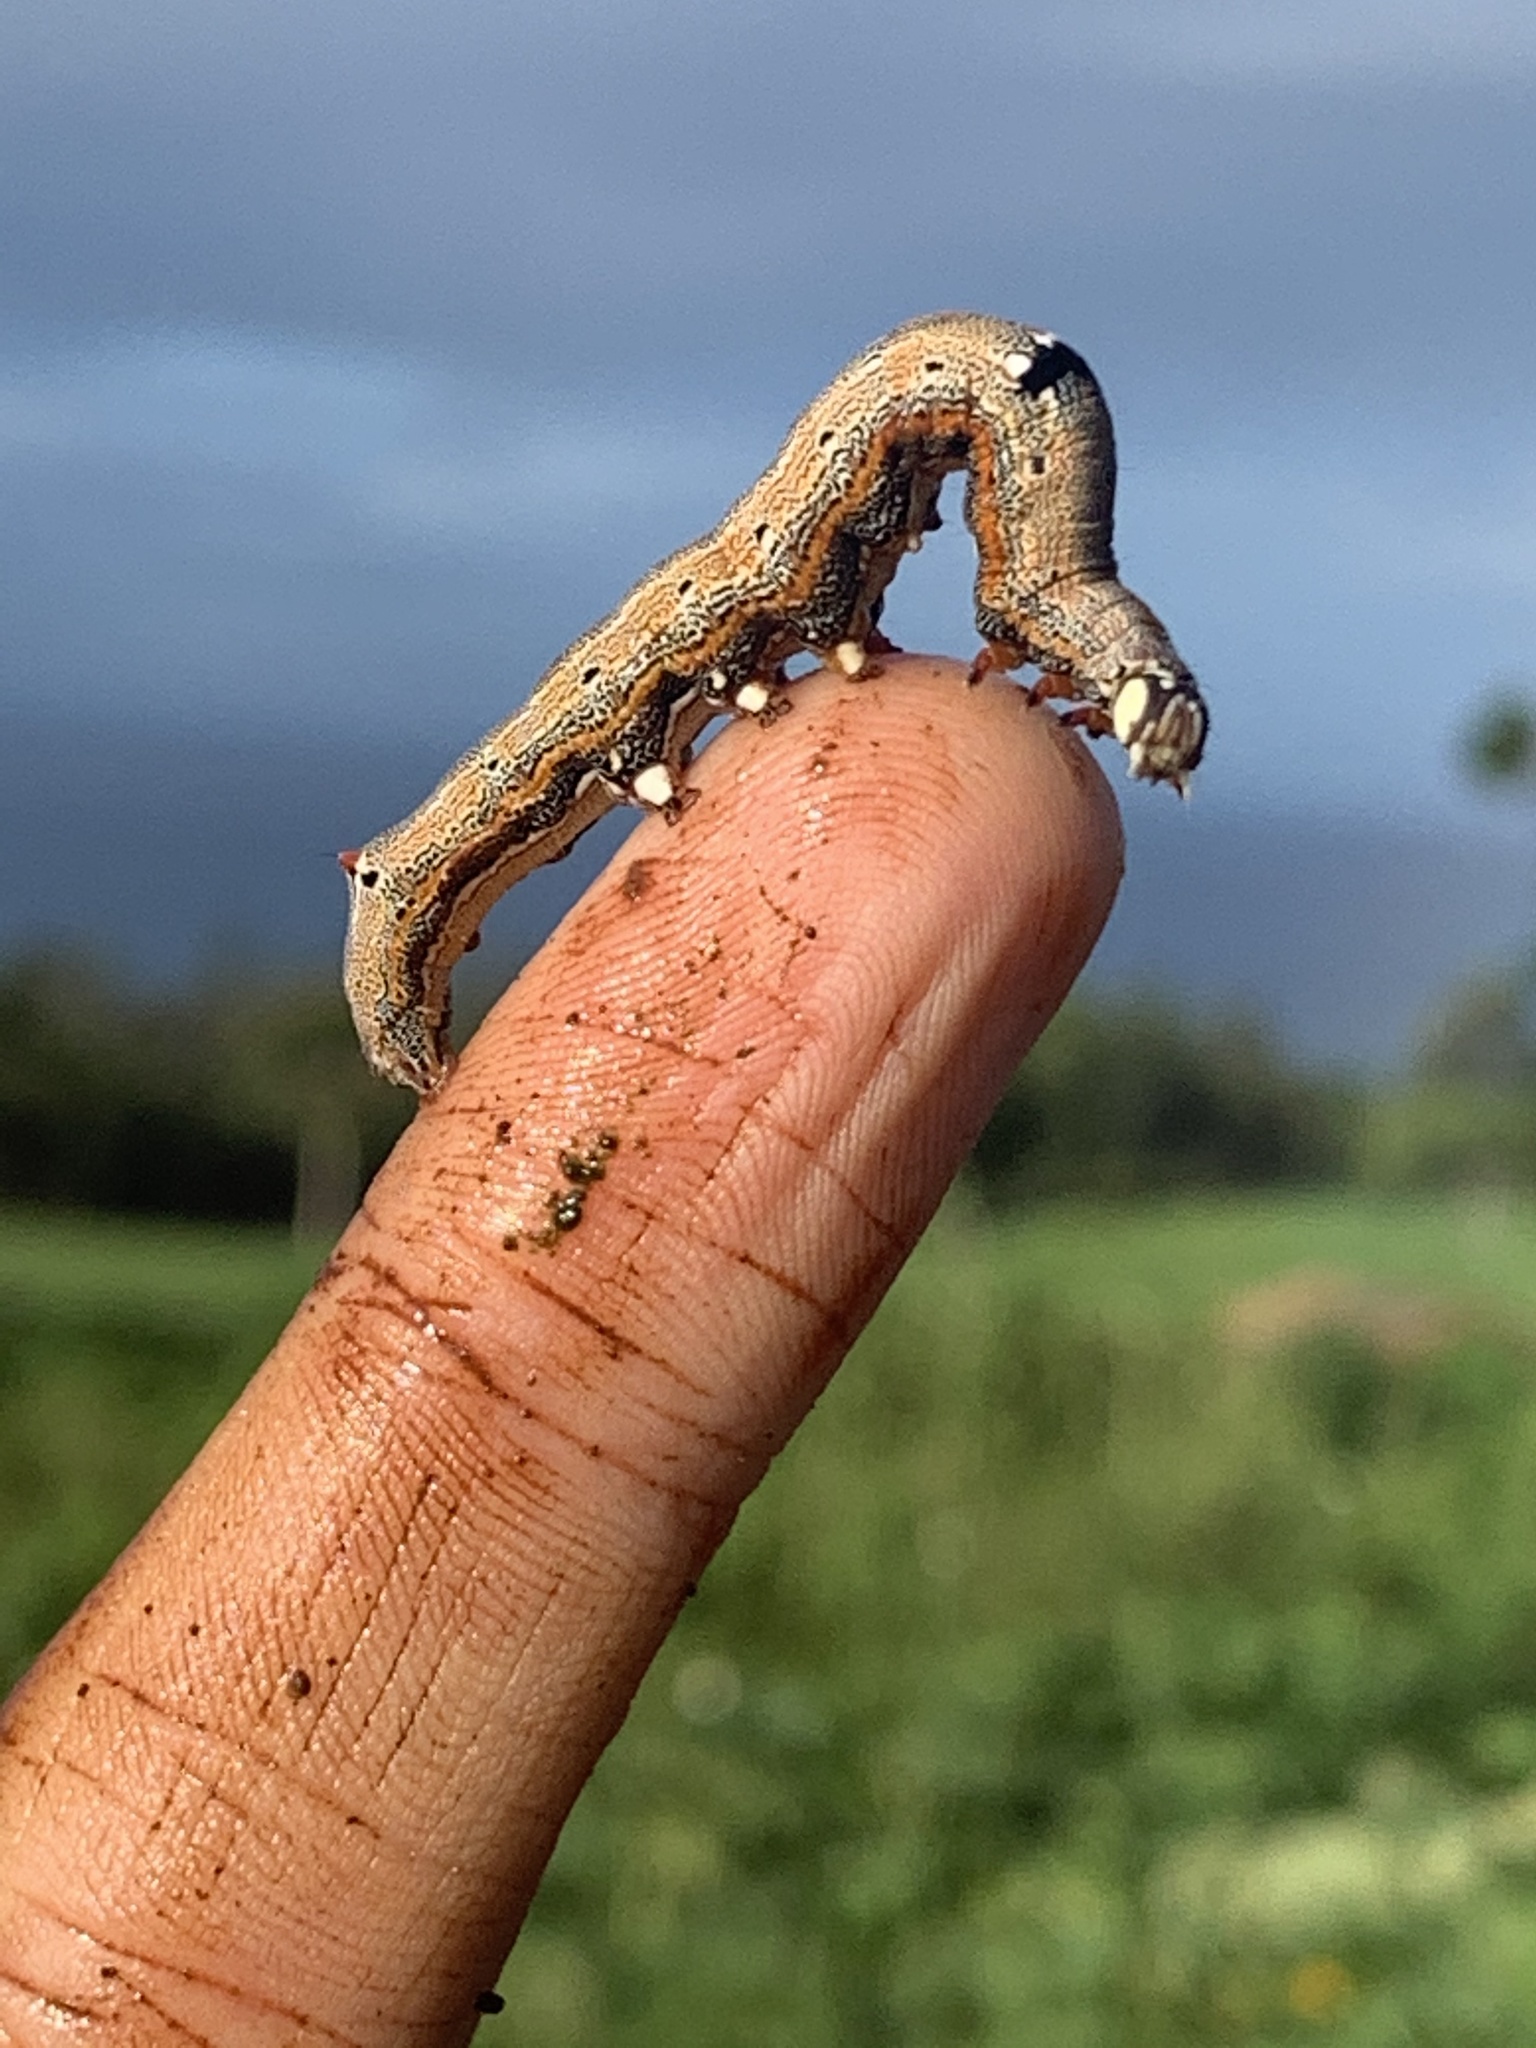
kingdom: Animalia
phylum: Arthropoda
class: Insecta
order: Lepidoptera
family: Erebidae
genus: Achaea
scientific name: Achaea janata
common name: Croton caterpillar
